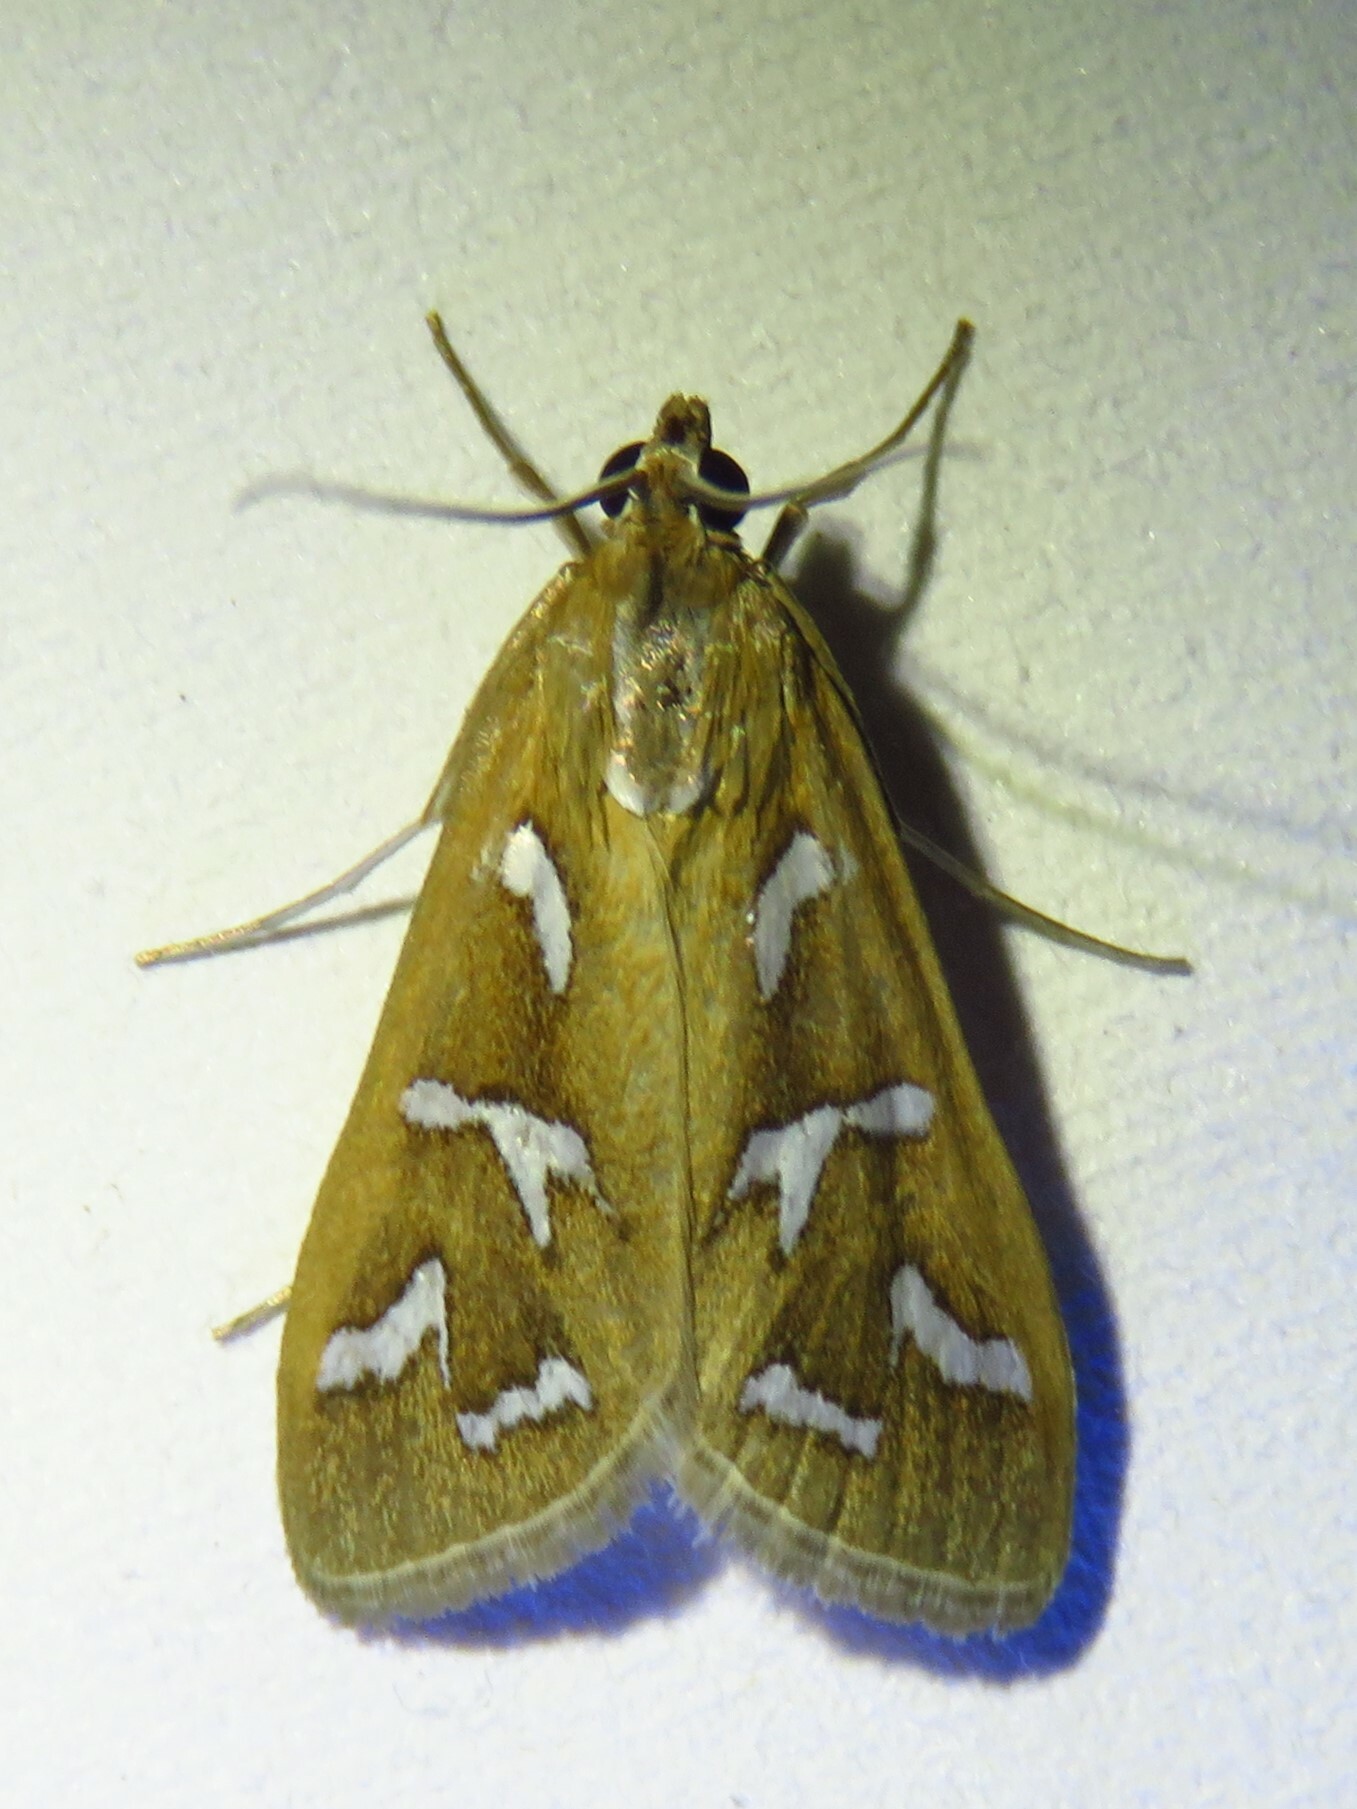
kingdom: Animalia
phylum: Arthropoda
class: Insecta
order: Lepidoptera
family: Crambidae
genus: Diastictis
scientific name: Diastictis fracturalis
